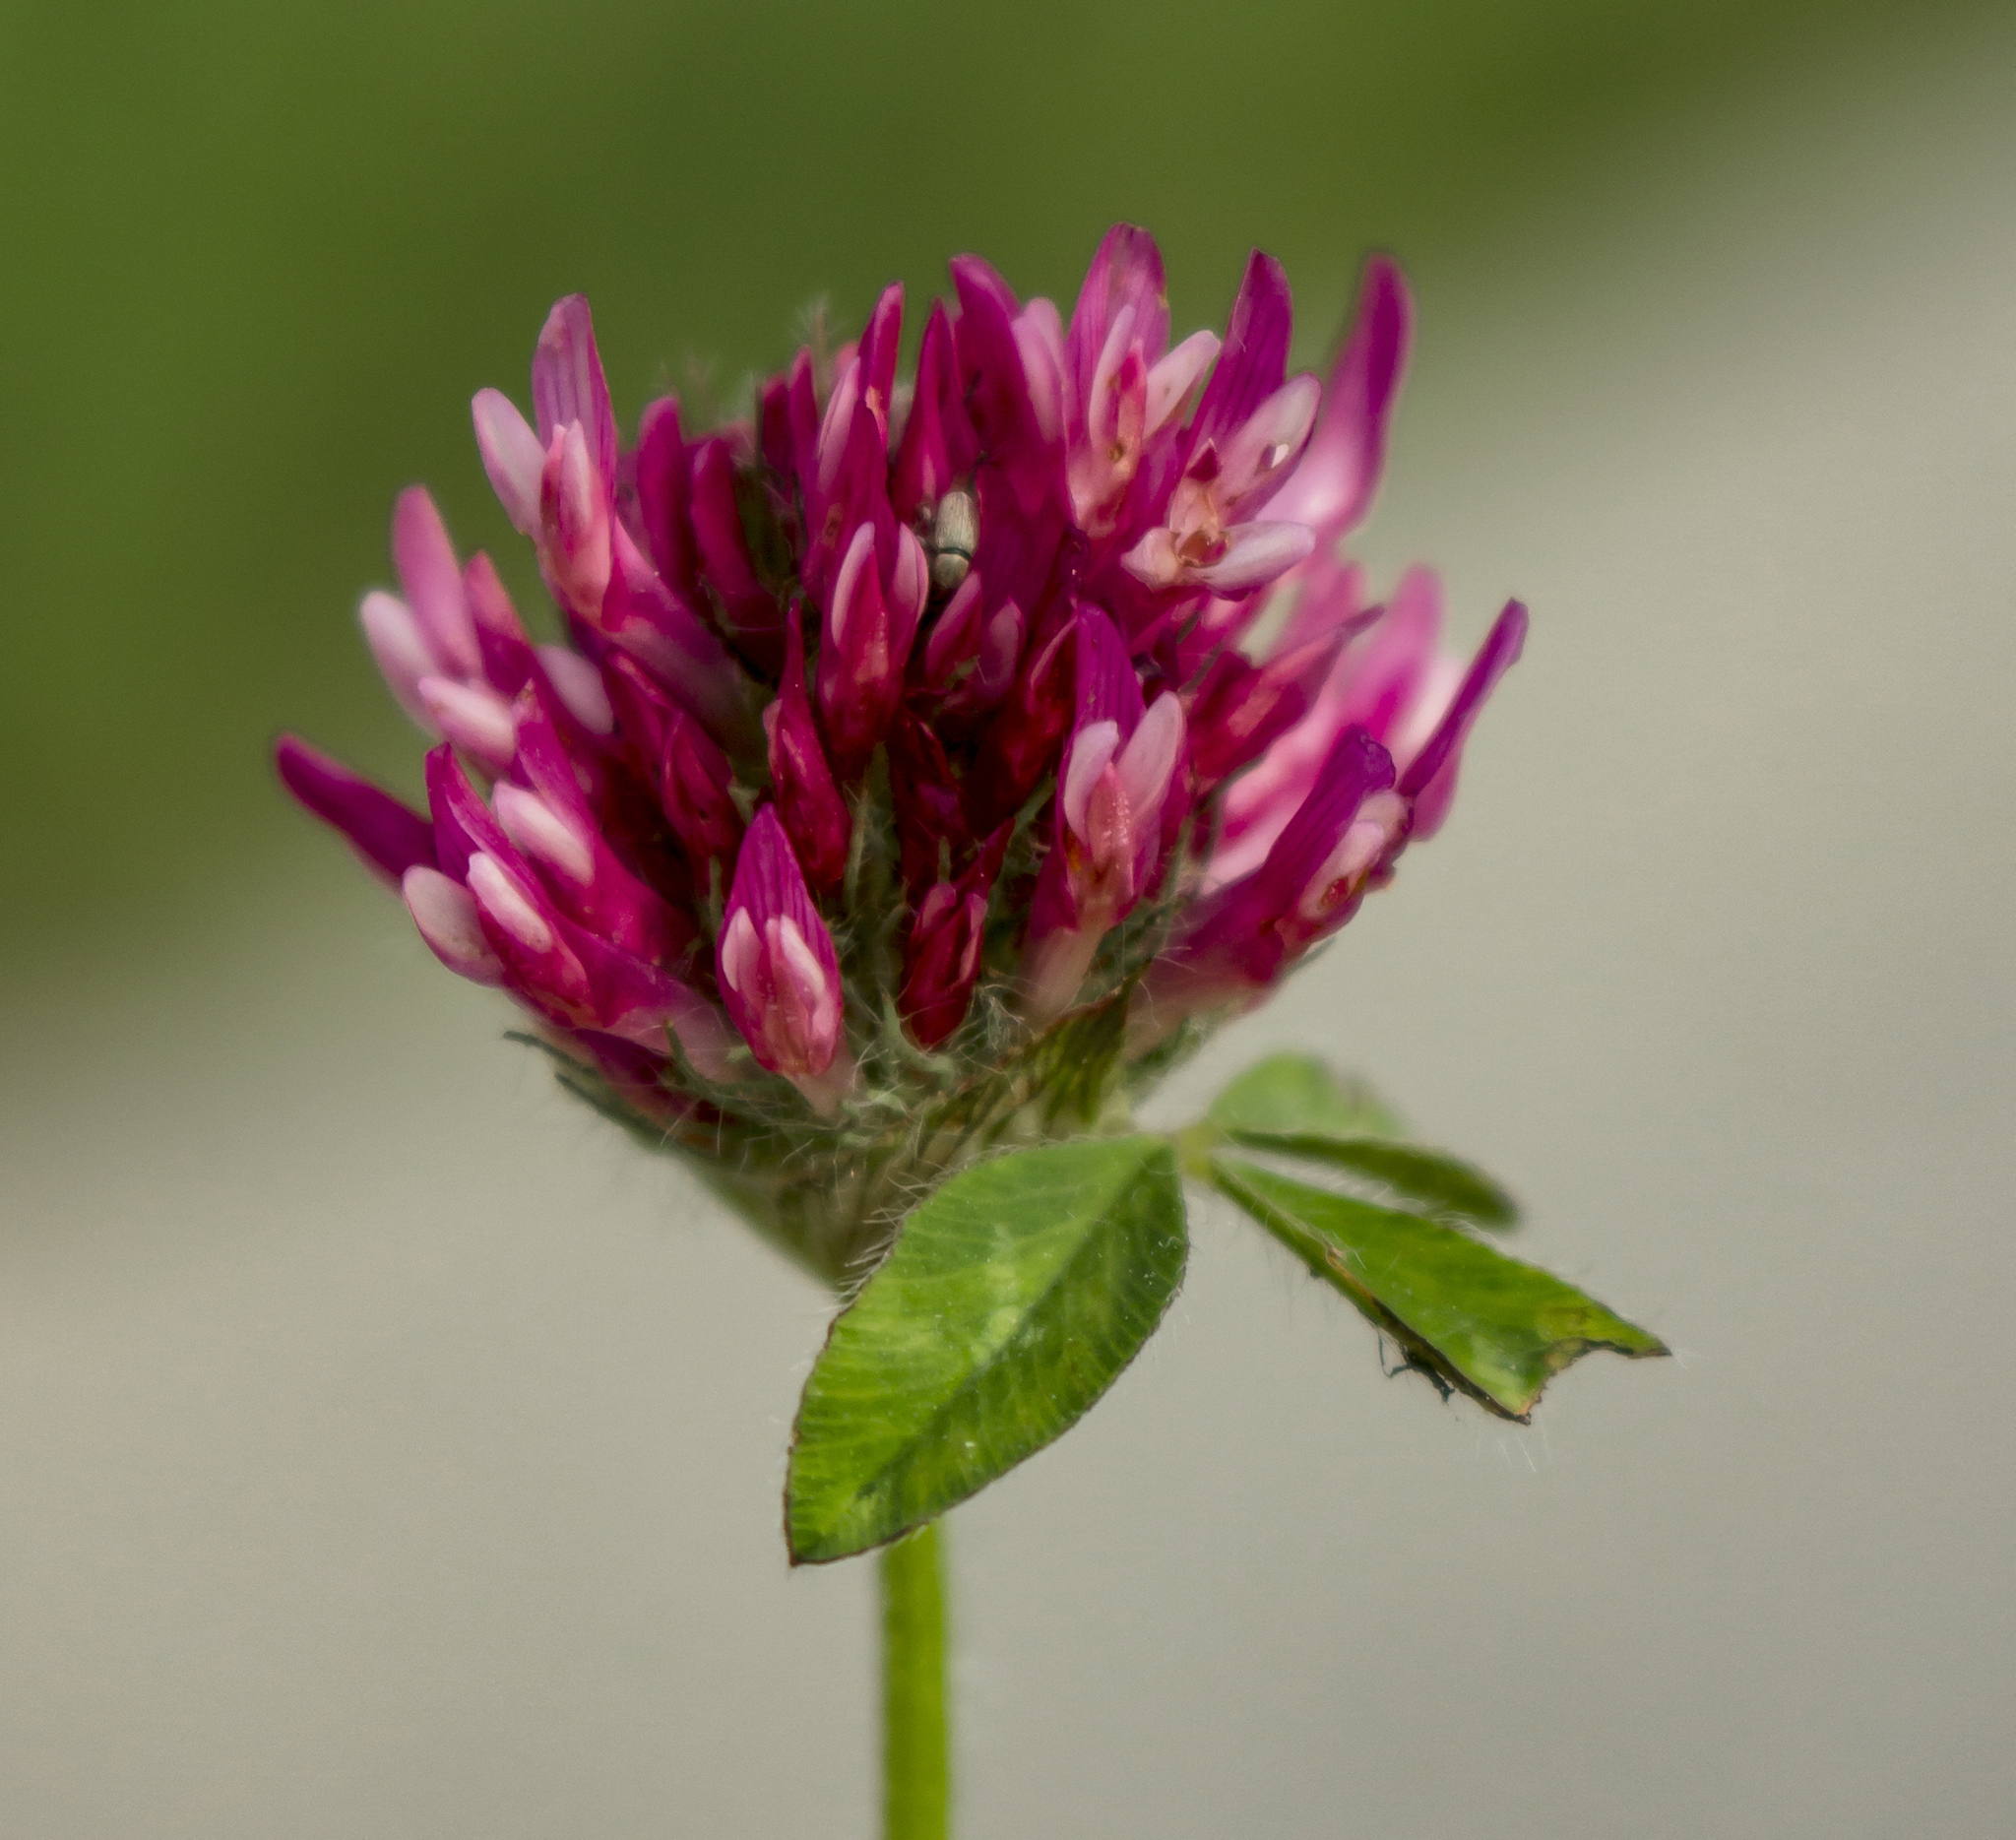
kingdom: Plantae
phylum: Tracheophyta
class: Magnoliopsida
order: Fabales
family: Fabaceae
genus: Trifolium
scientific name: Trifolium pratense
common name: Red clover
